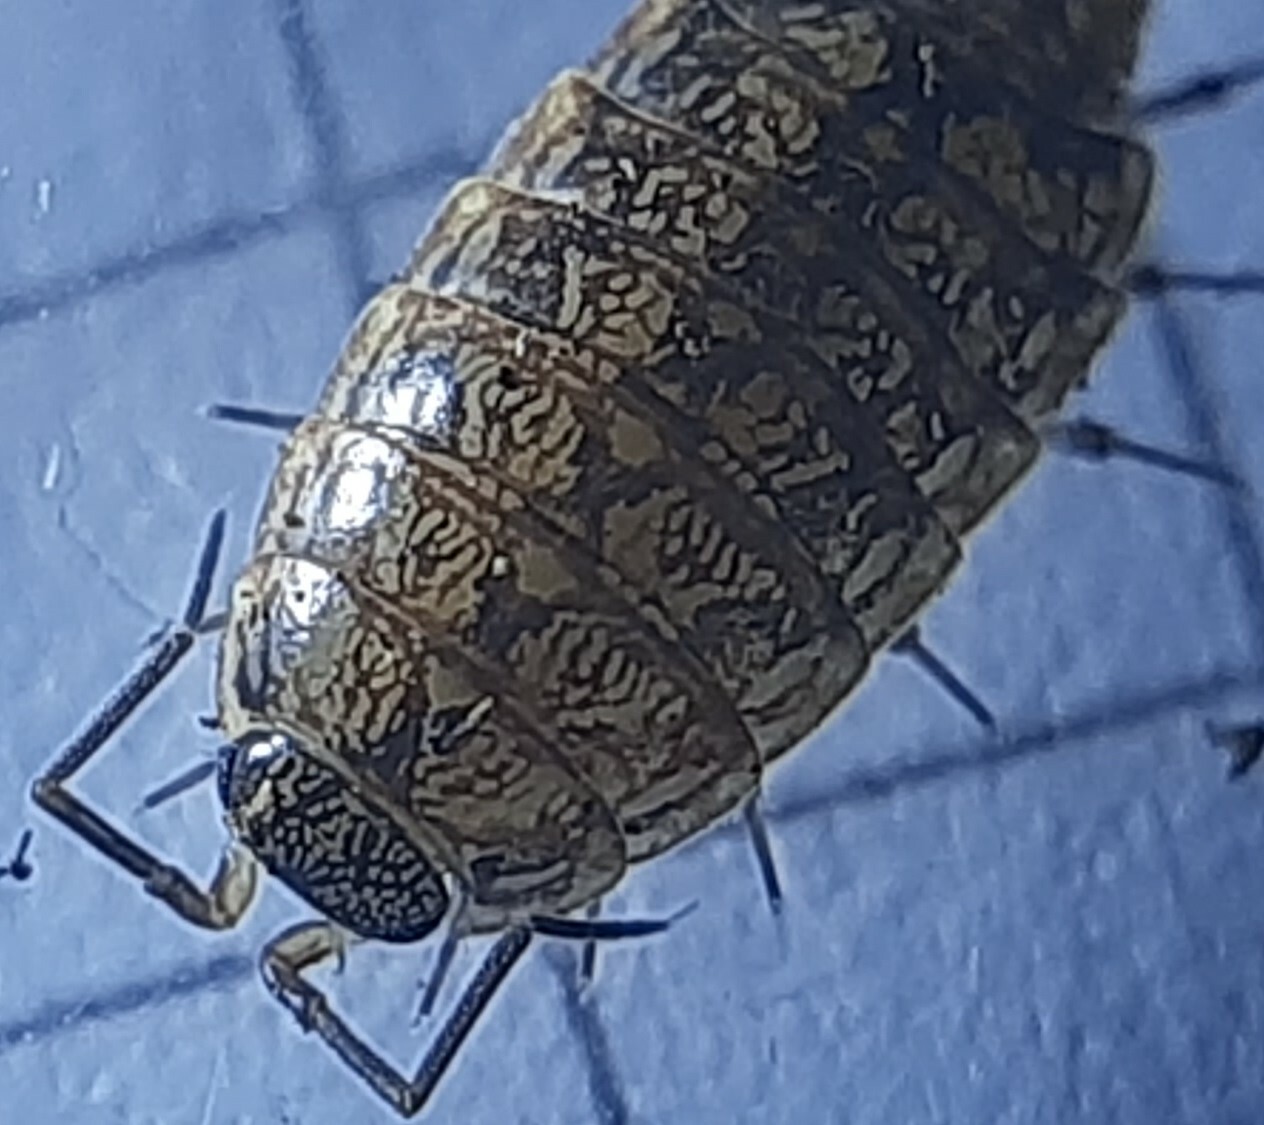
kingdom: Animalia
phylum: Arthropoda
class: Malacostraca
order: Isopoda
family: Philosciidae
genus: Philoscia
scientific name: Philoscia affinis
